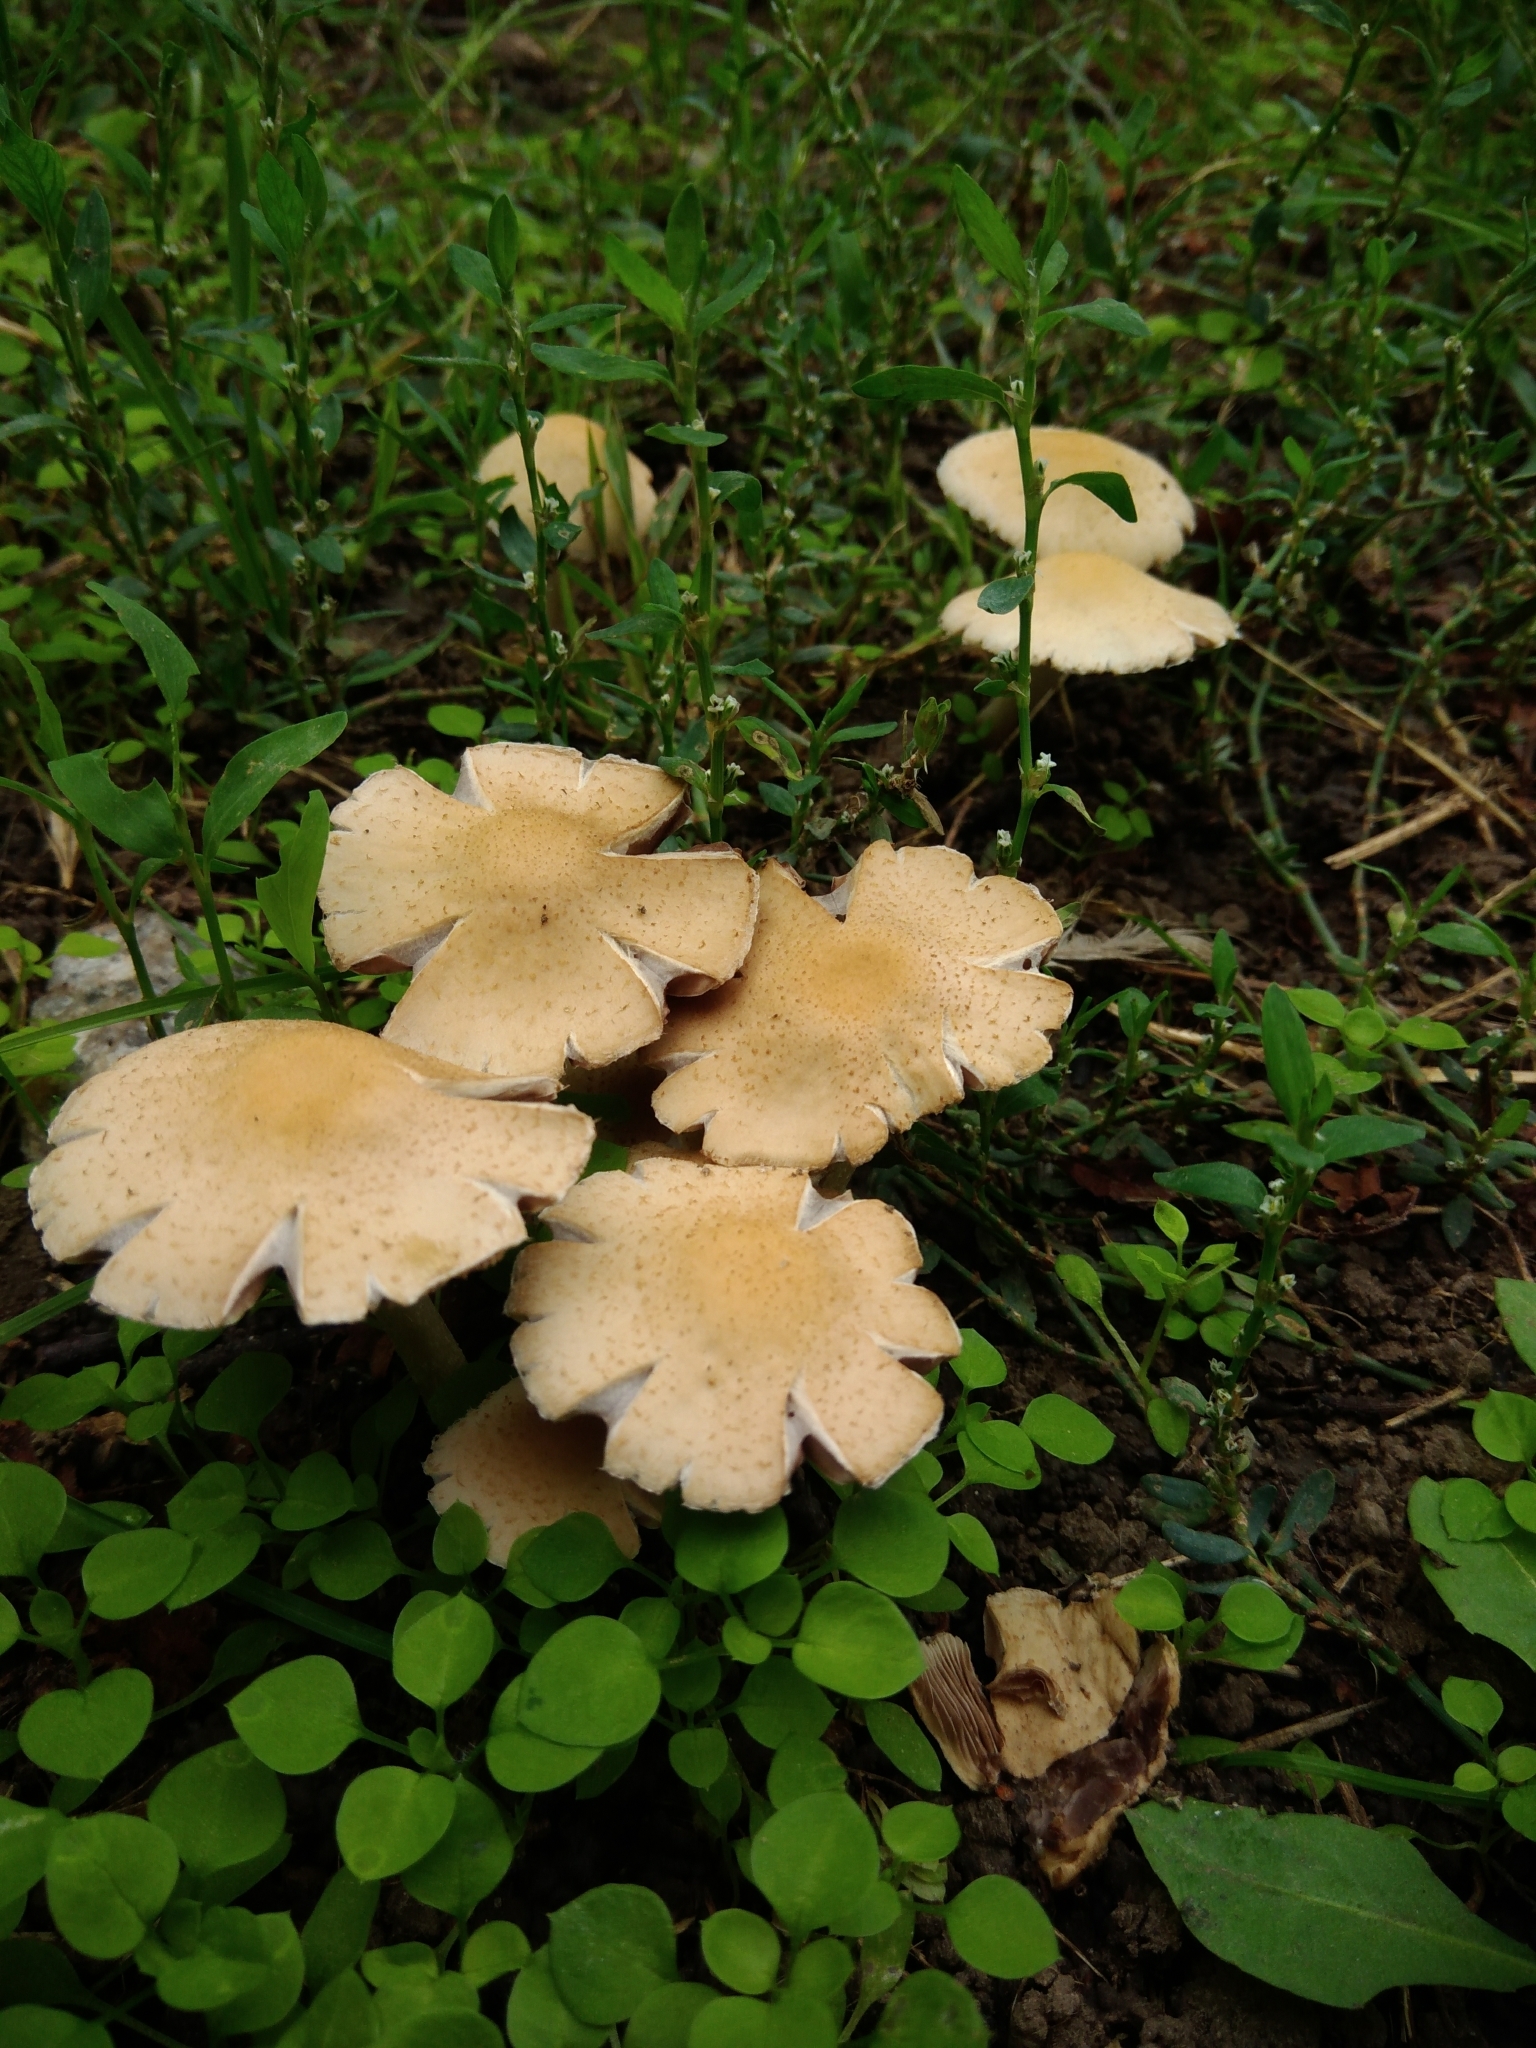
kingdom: Fungi
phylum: Basidiomycota
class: Agaricomycetes
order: Agaricales
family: Psathyrellaceae
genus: Candolleomyces
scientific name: Candolleomyces candolleanus
